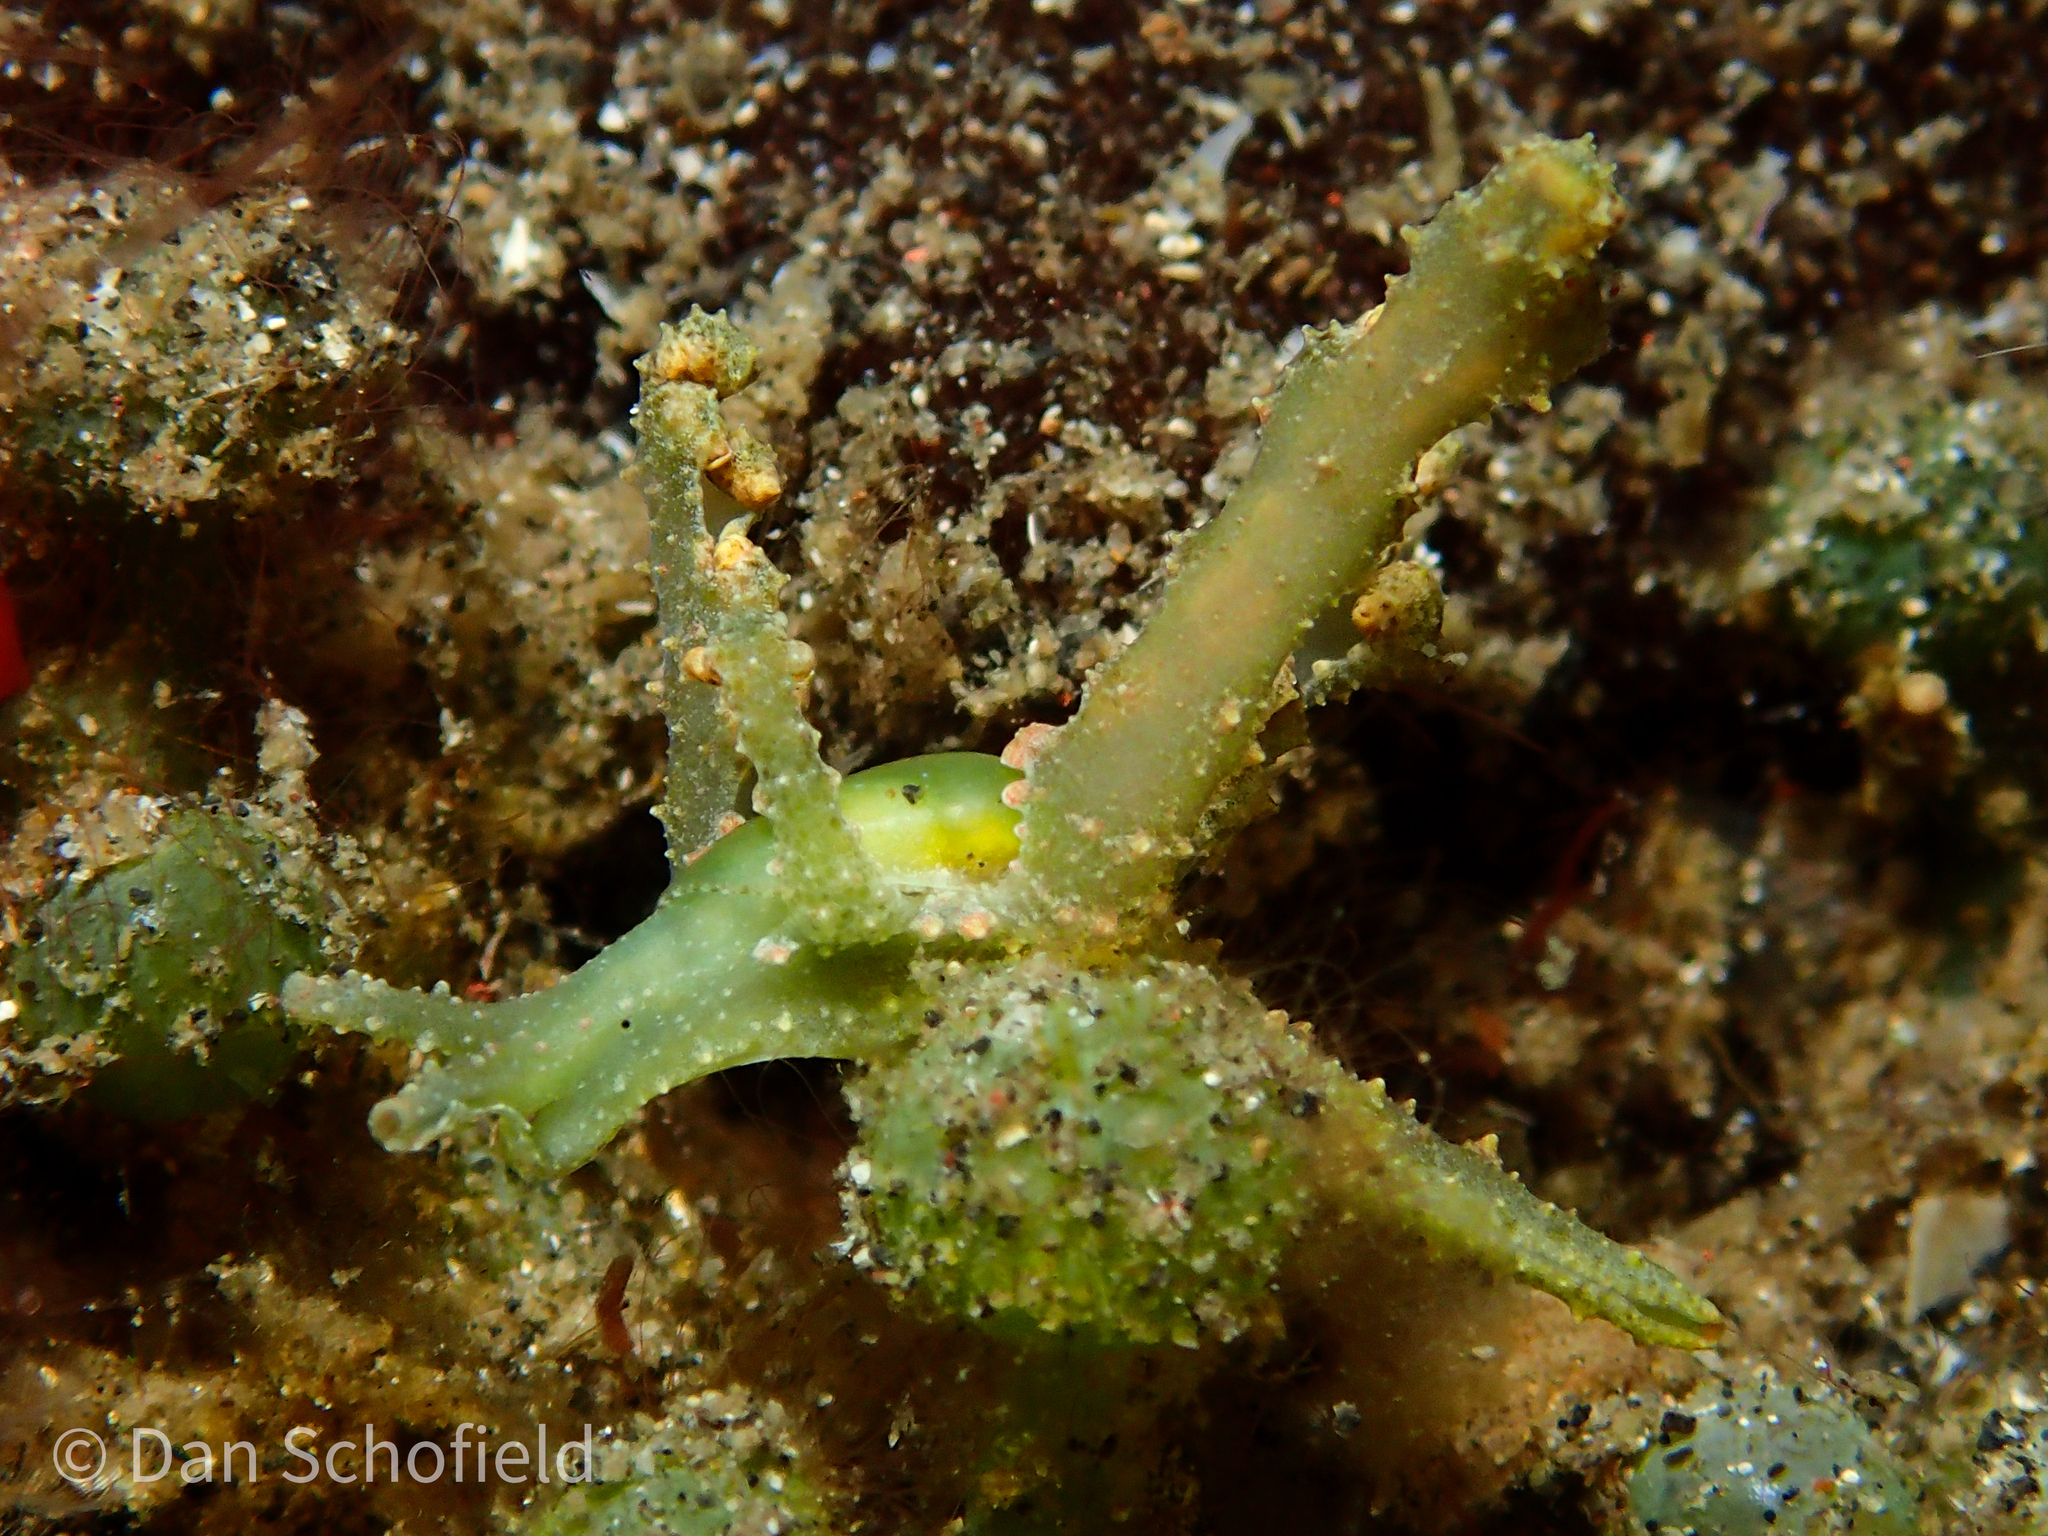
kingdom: Animalia
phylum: Mollusca
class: Gastropoda
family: Oxynoidae
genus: Lobiger
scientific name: Lobiger viridis
